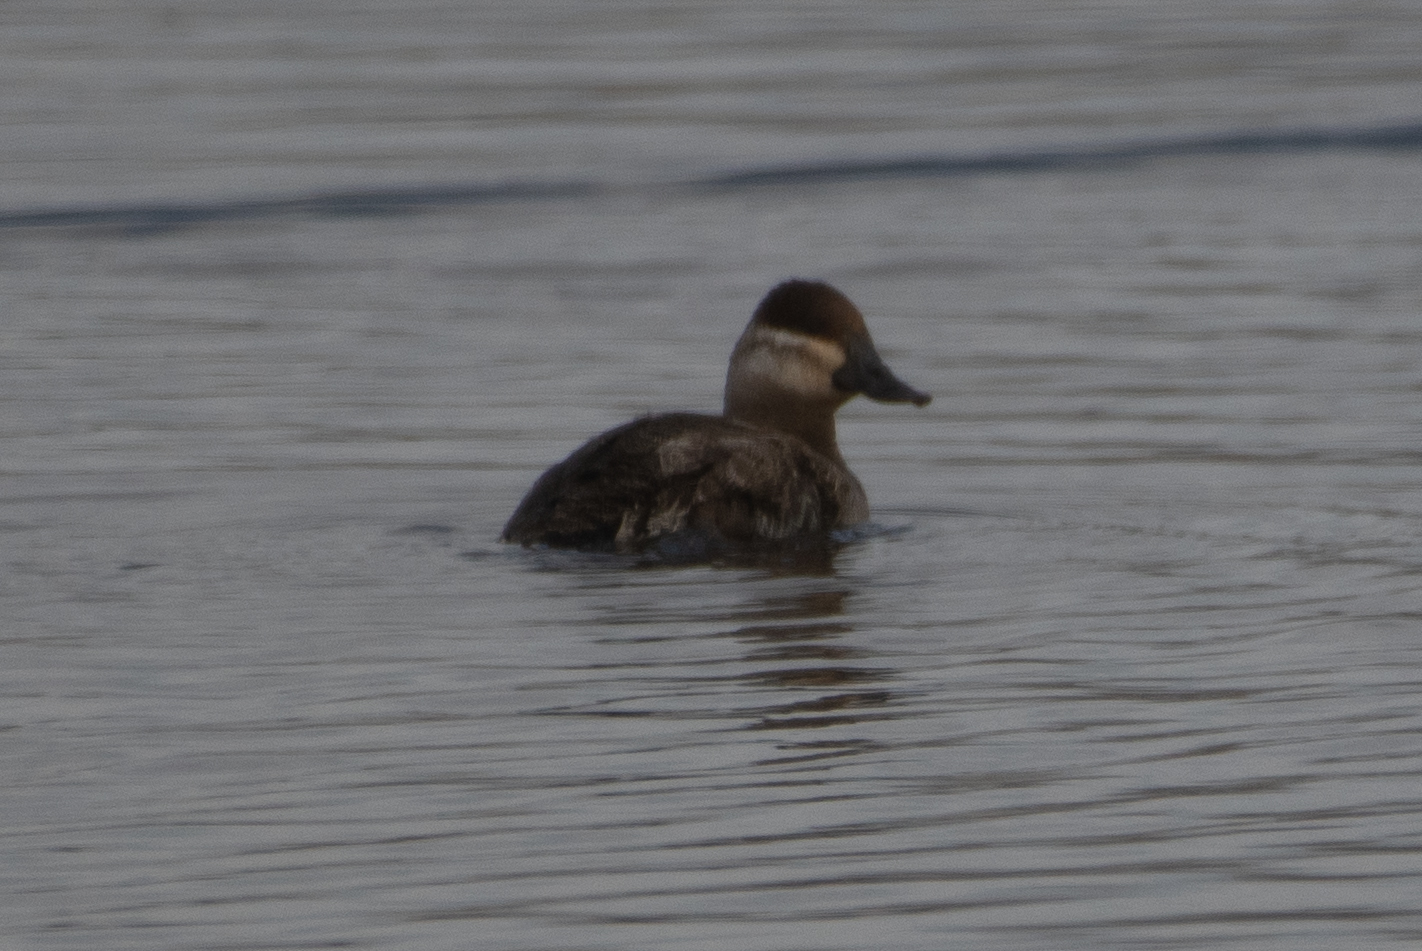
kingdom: Animalia
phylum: Chordata
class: Aves
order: Anseriformes
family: Anatidae
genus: Oxyura
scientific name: Oxyura jamaicensis
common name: Ruddy duck
